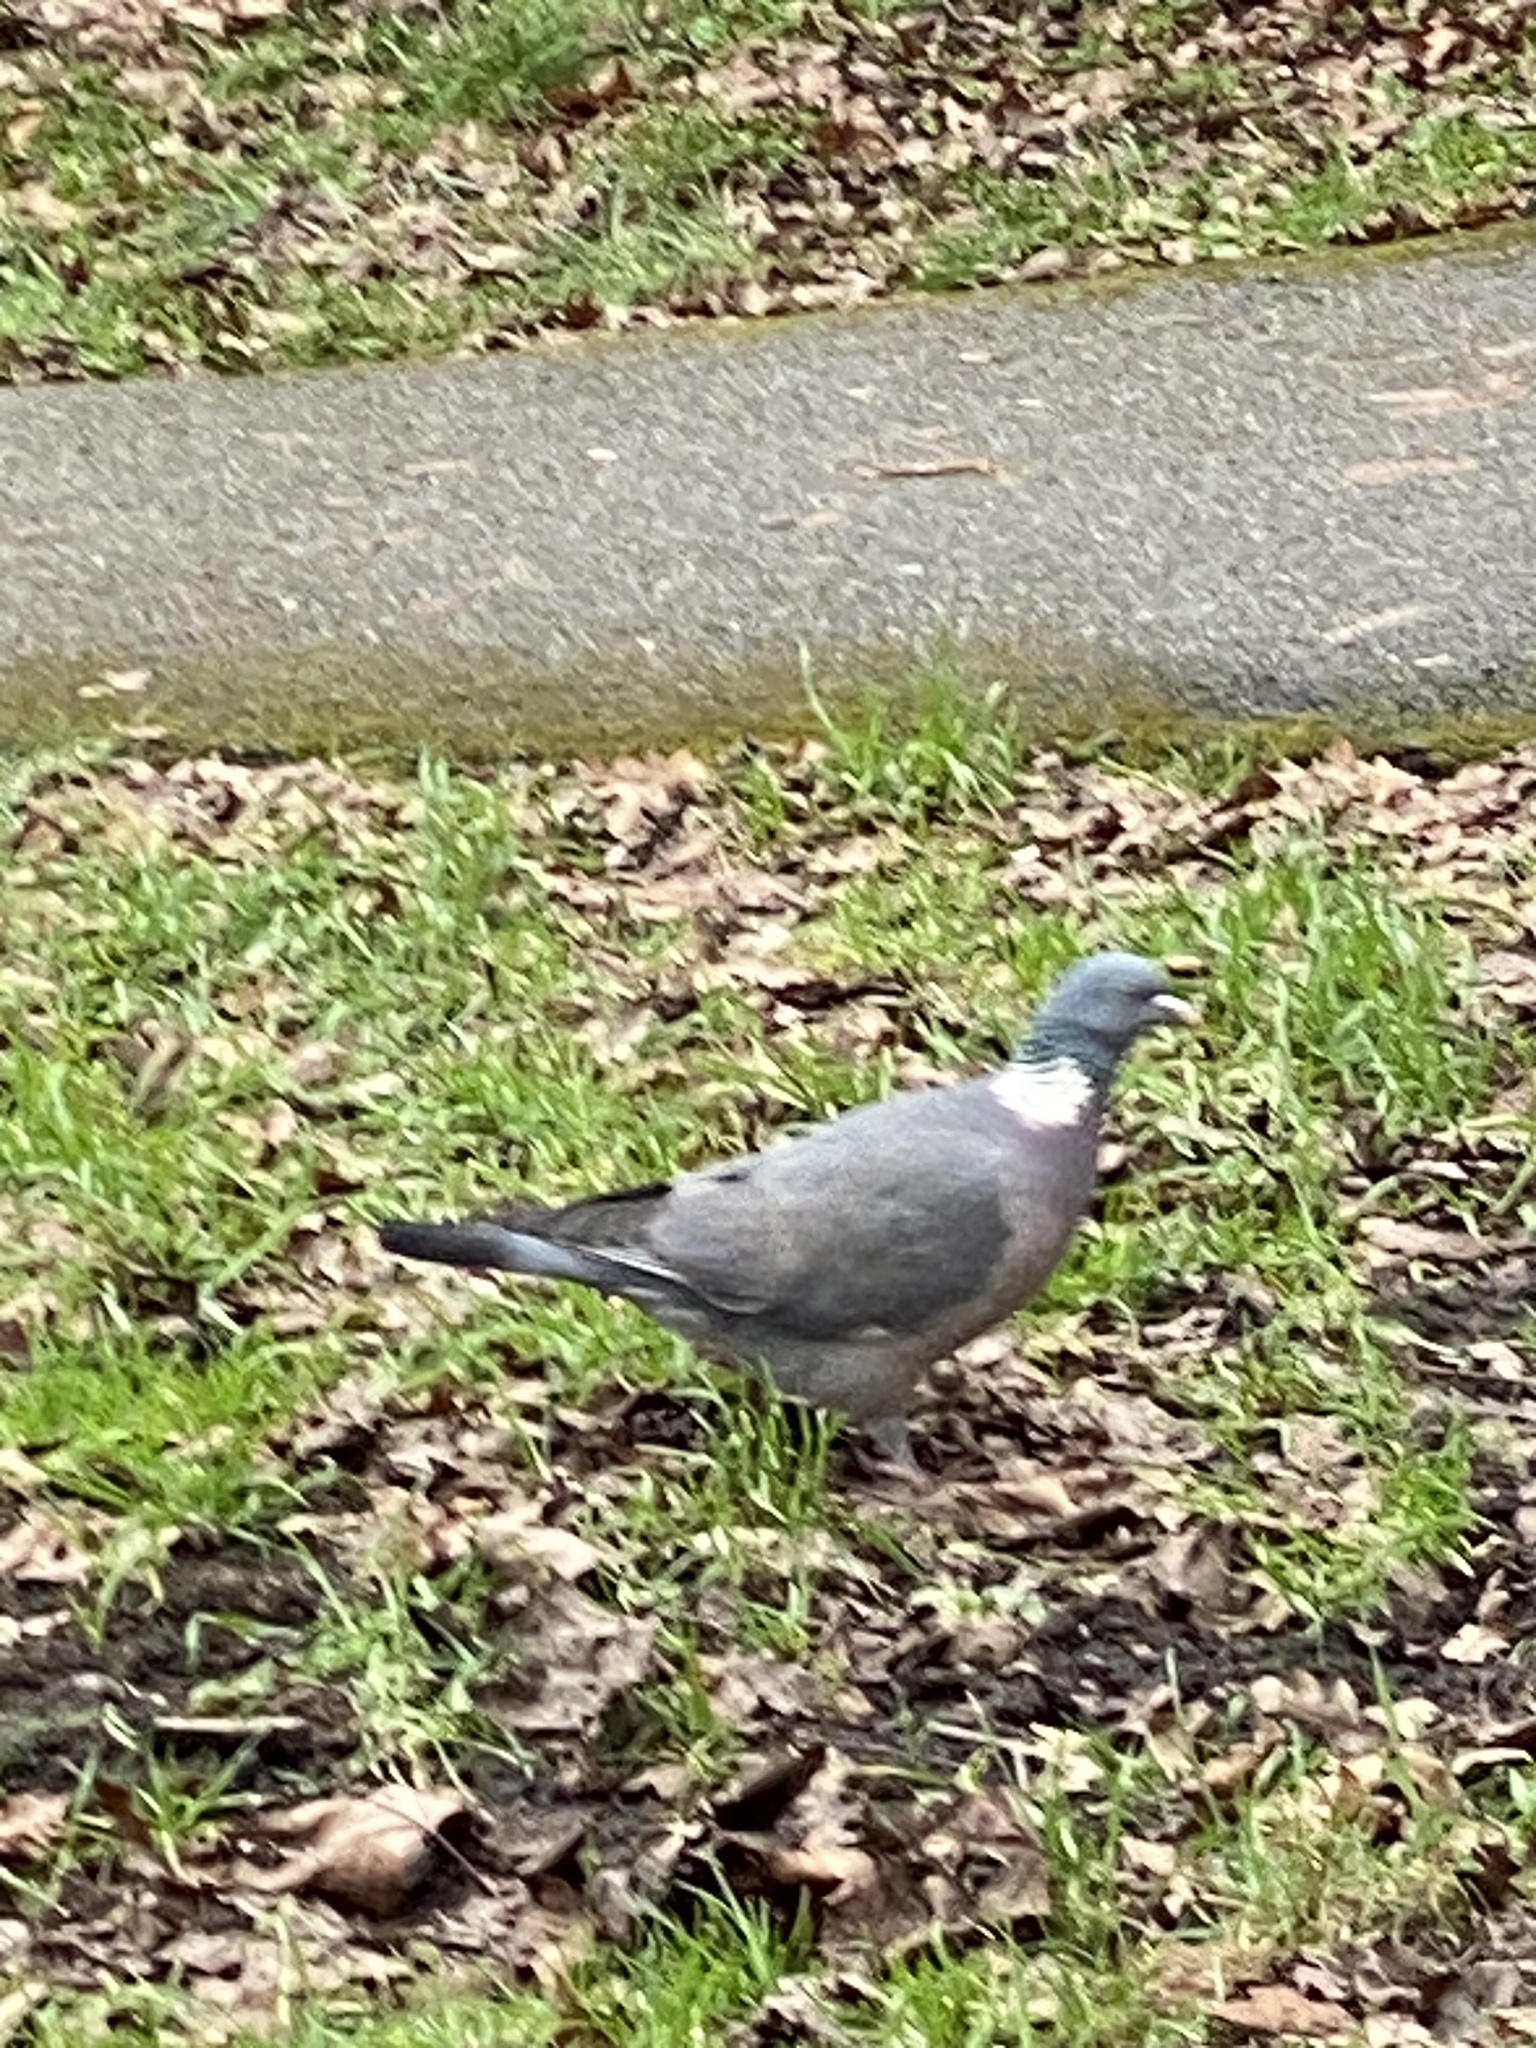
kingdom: Animalia
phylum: Chordata
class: Aves
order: Columbiformes
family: Columbidae
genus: Columba
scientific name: Columba palumbus
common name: Common wood pigeon
